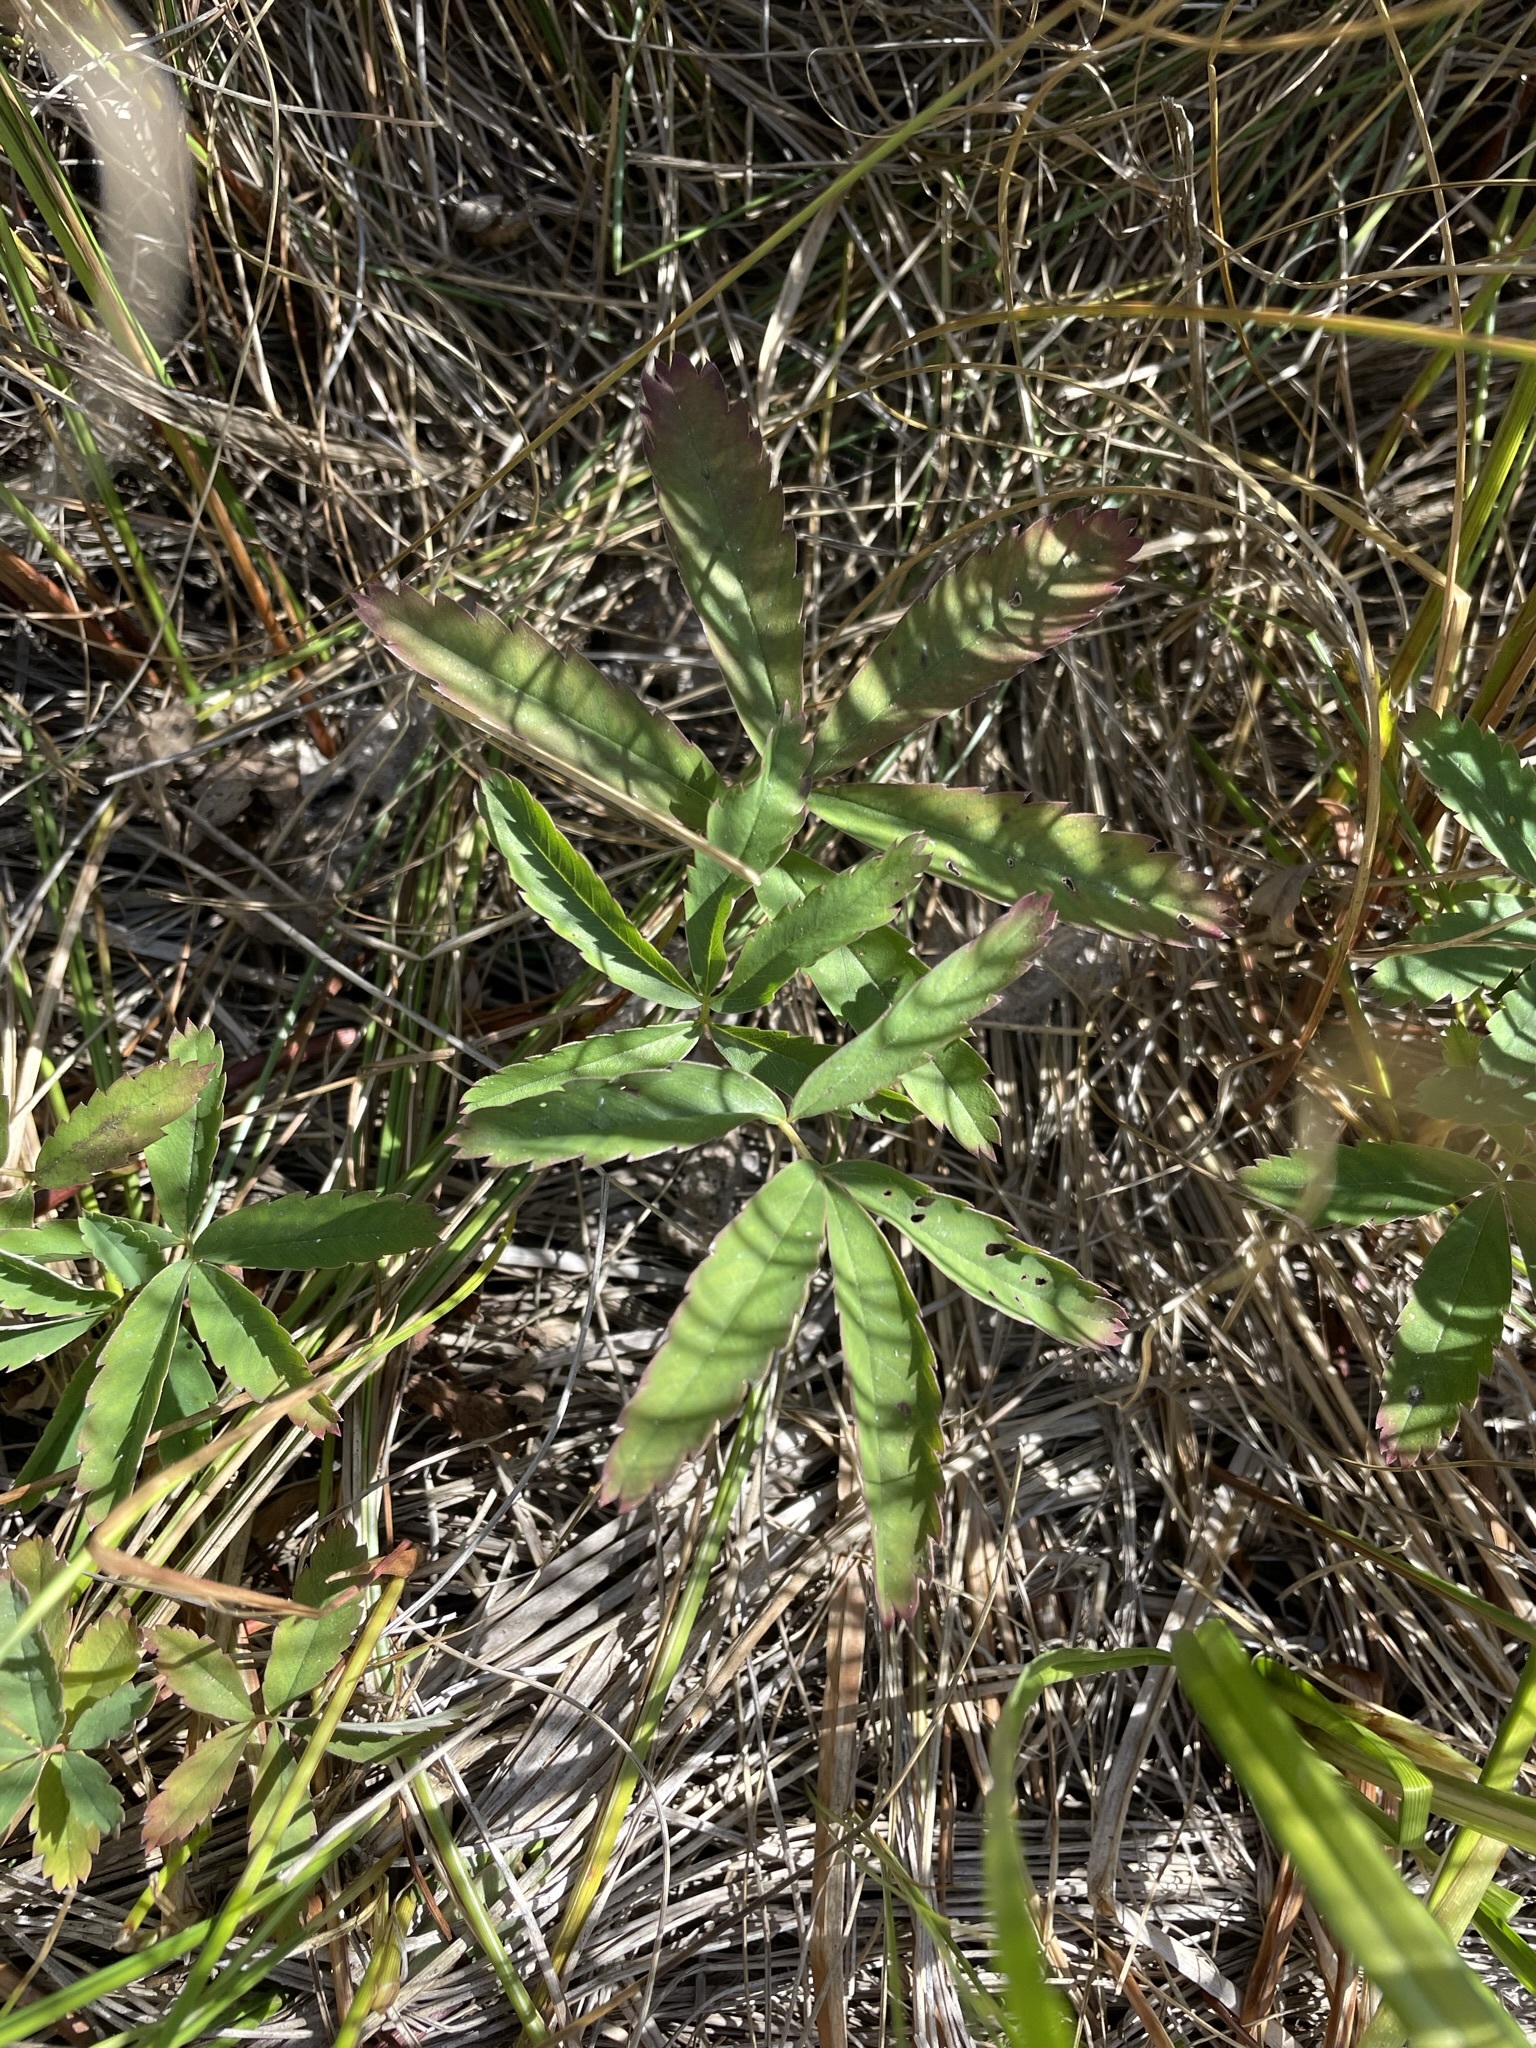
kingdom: Plantae
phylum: Tracheophyta
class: Magnoliopsida
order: Rosales
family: Rosaceae
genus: Comarum
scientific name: Comarum palustre
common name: Marsh cinquefoil
